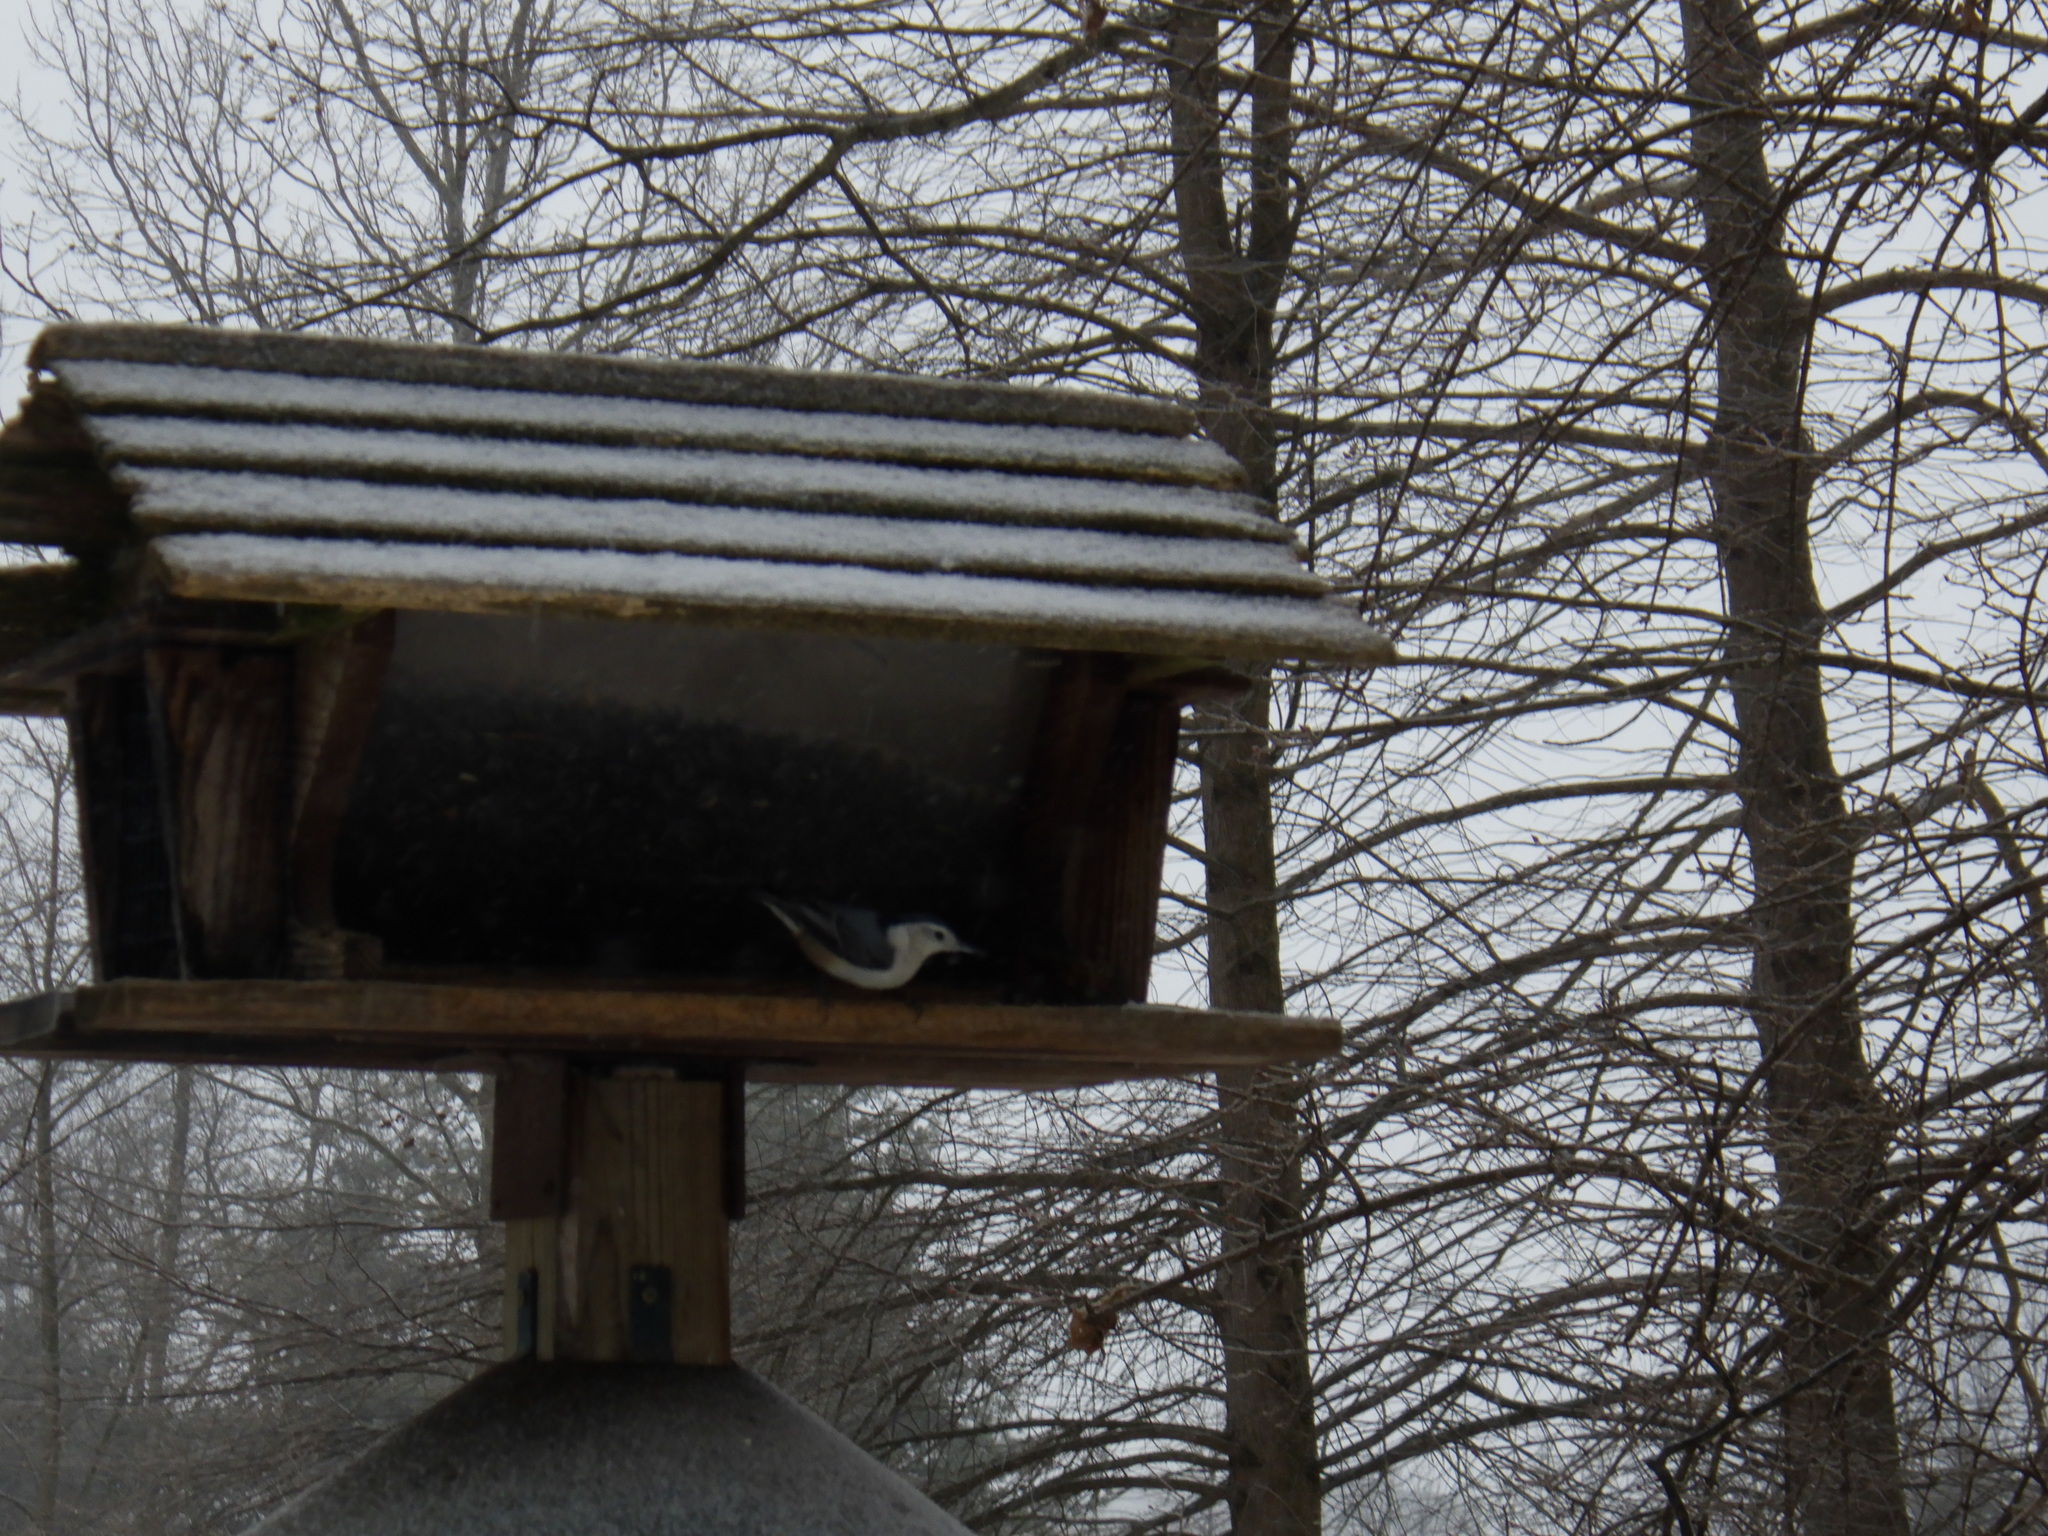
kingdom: Animalia
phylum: Chordata
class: Aves
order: Passeriformes
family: Sittidae
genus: Sitta
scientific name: Sitta carolinensis
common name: White-breasted nuthatch
